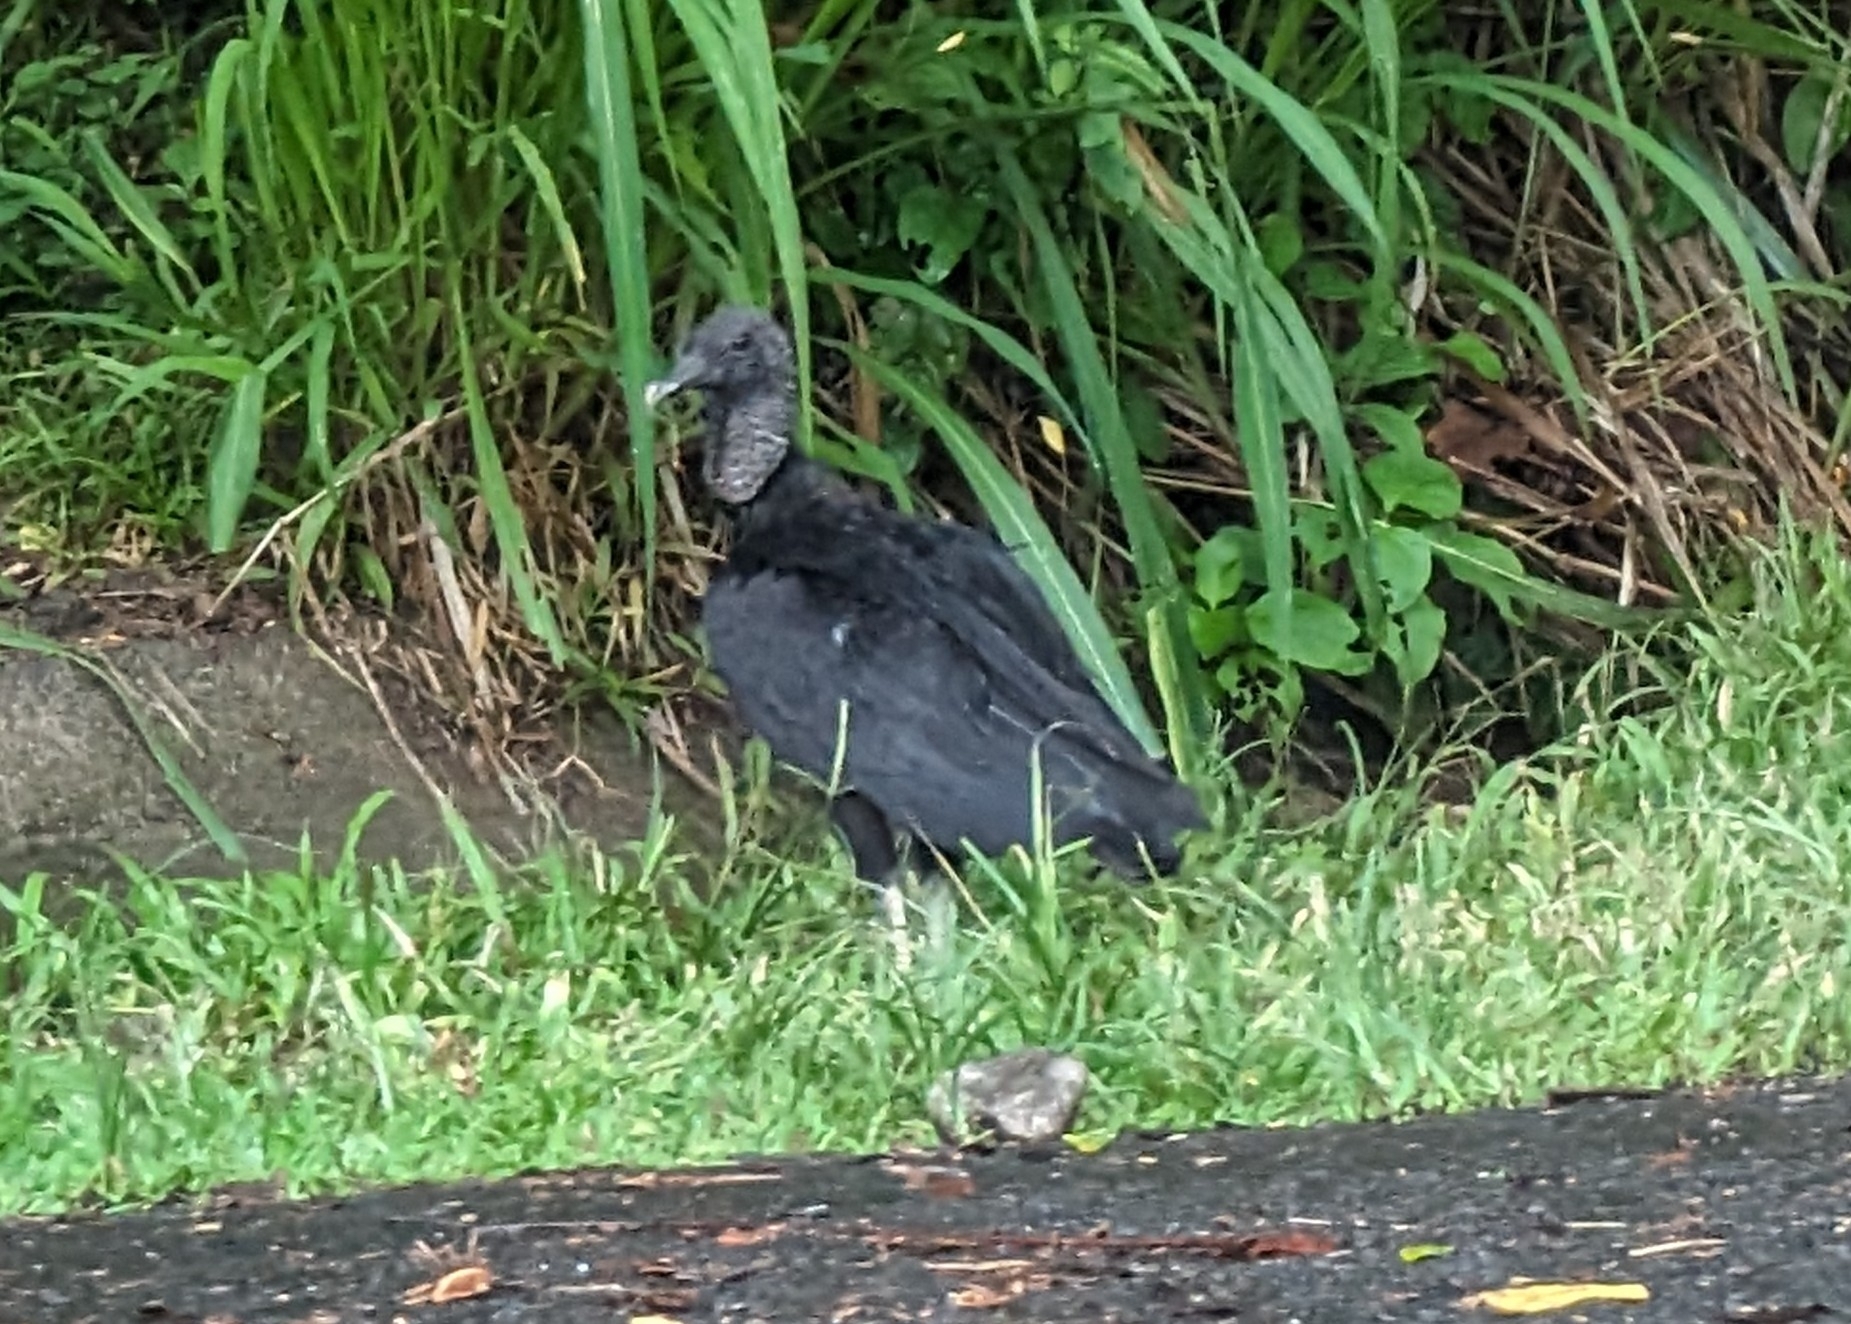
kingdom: Animalia
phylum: Chordata
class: Aves
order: Accipitriformes
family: Cathartidae
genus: Coragyps
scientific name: Coragyps atratus
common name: Black vulture
